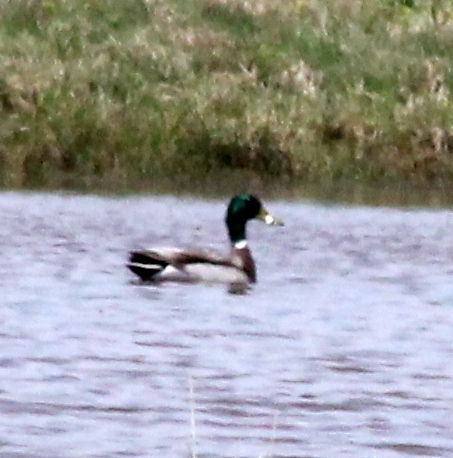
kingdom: Animalia
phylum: Chordata
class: Aves
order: Anseriformes
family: Anatidae
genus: Anas
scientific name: Anas platyrhynchos
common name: Mallard
